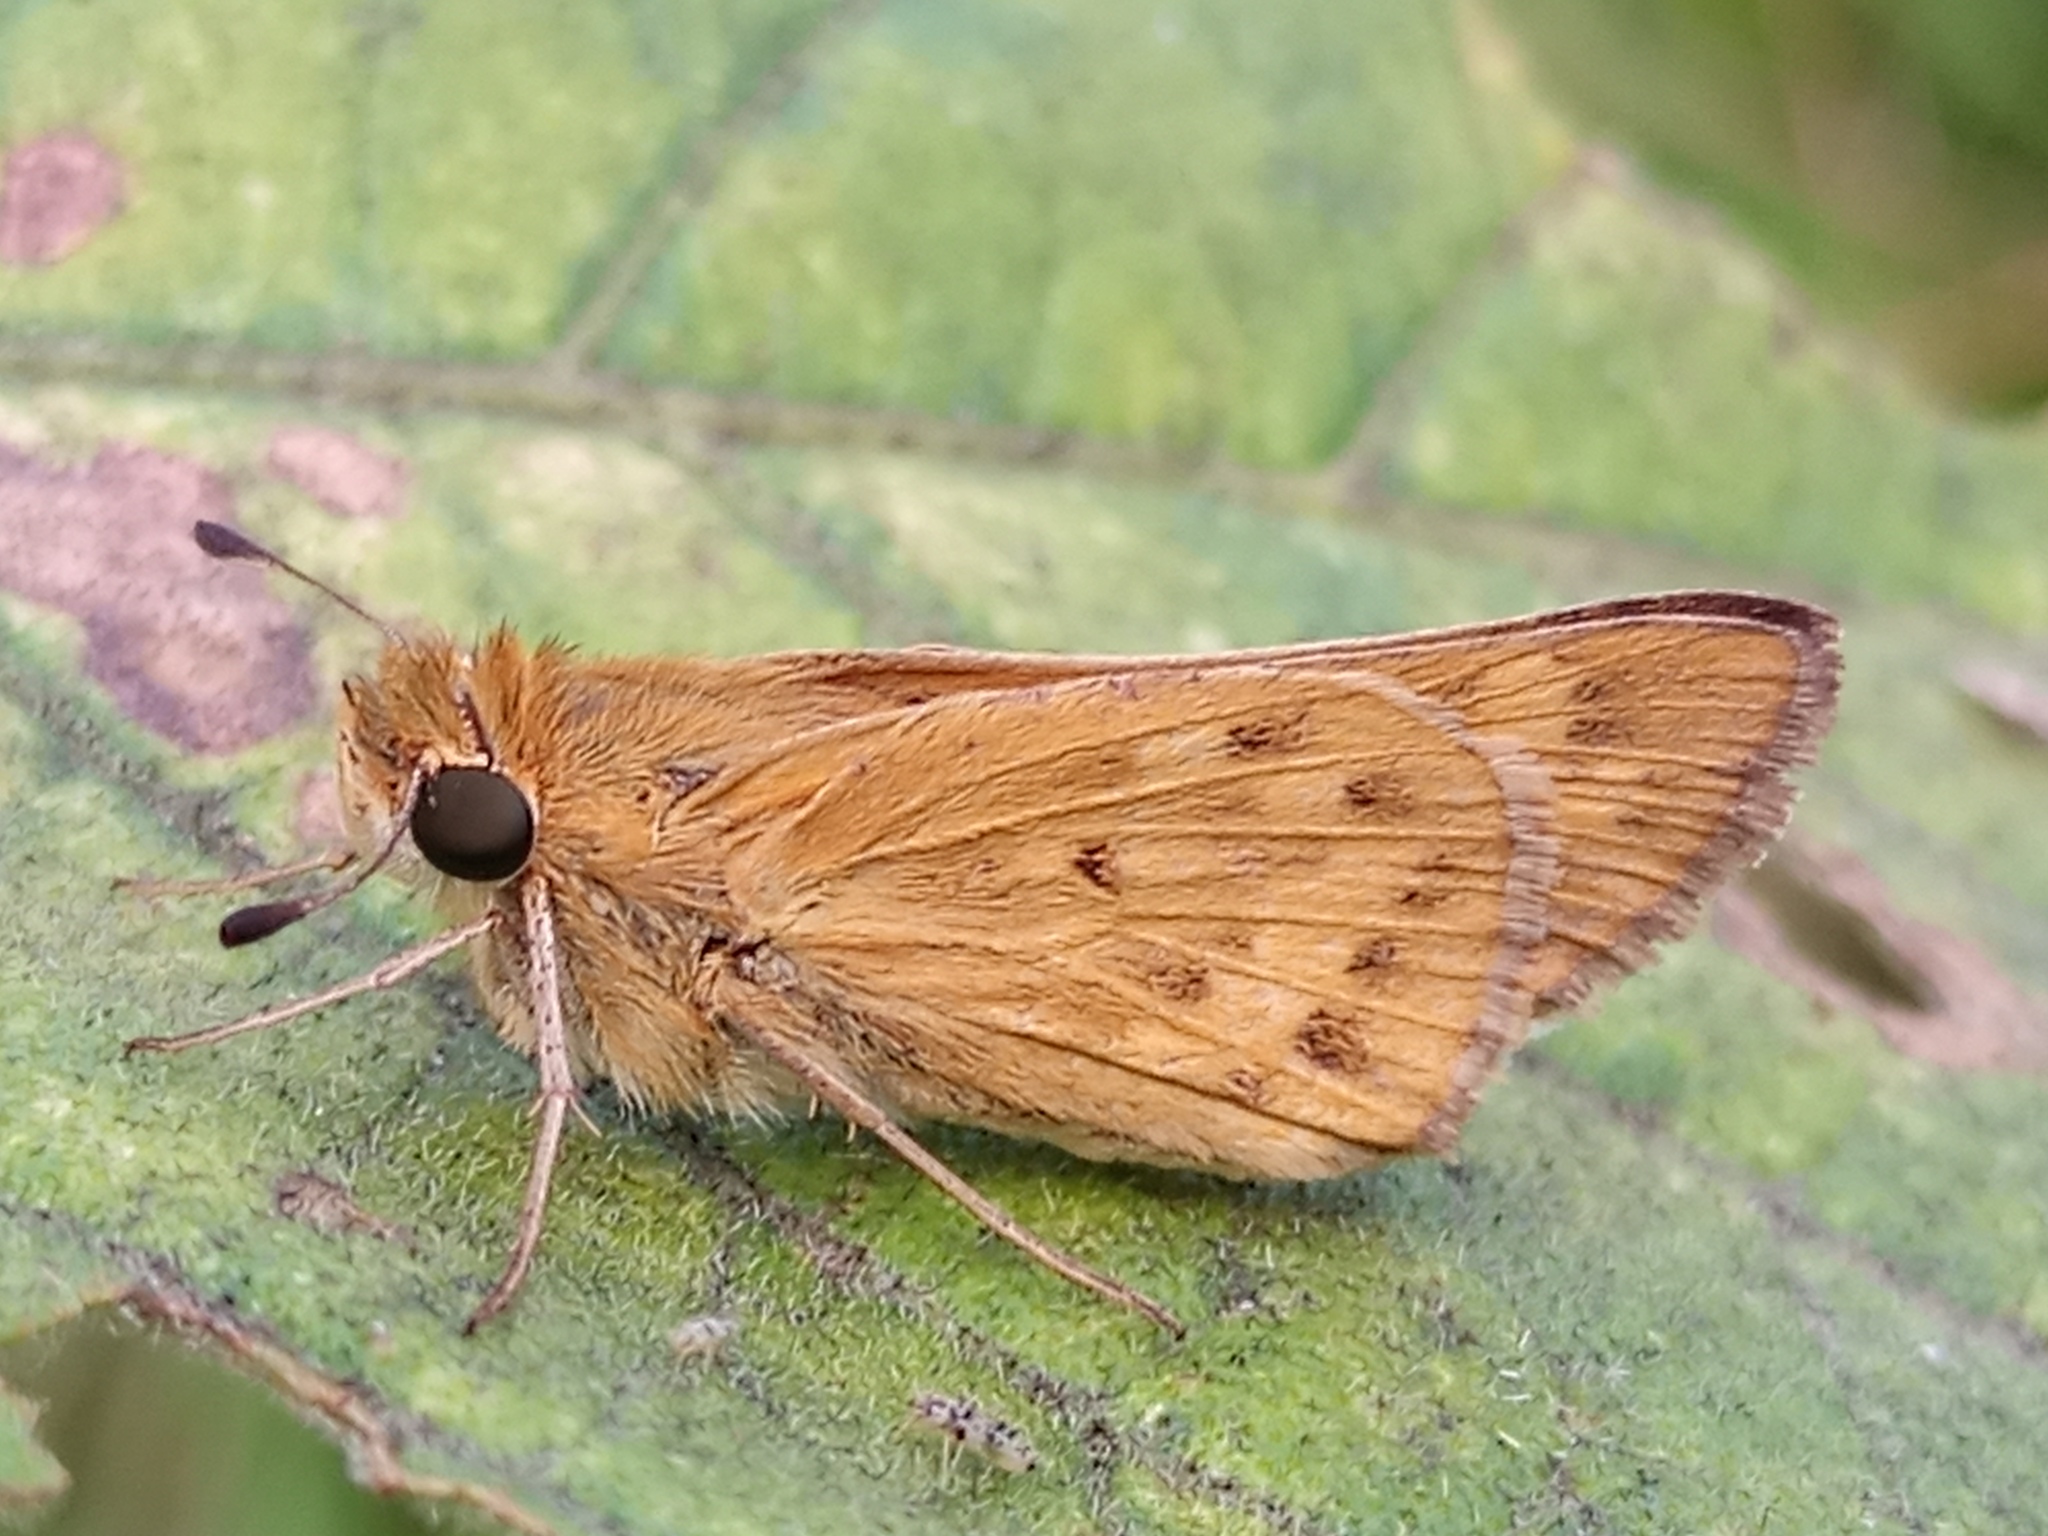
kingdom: Animalia
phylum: Arthropoda
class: Insecta
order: Lepidoptera
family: Hesperiidae
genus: Hylephila
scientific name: Hylephila phyleus
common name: Fiery skipper
